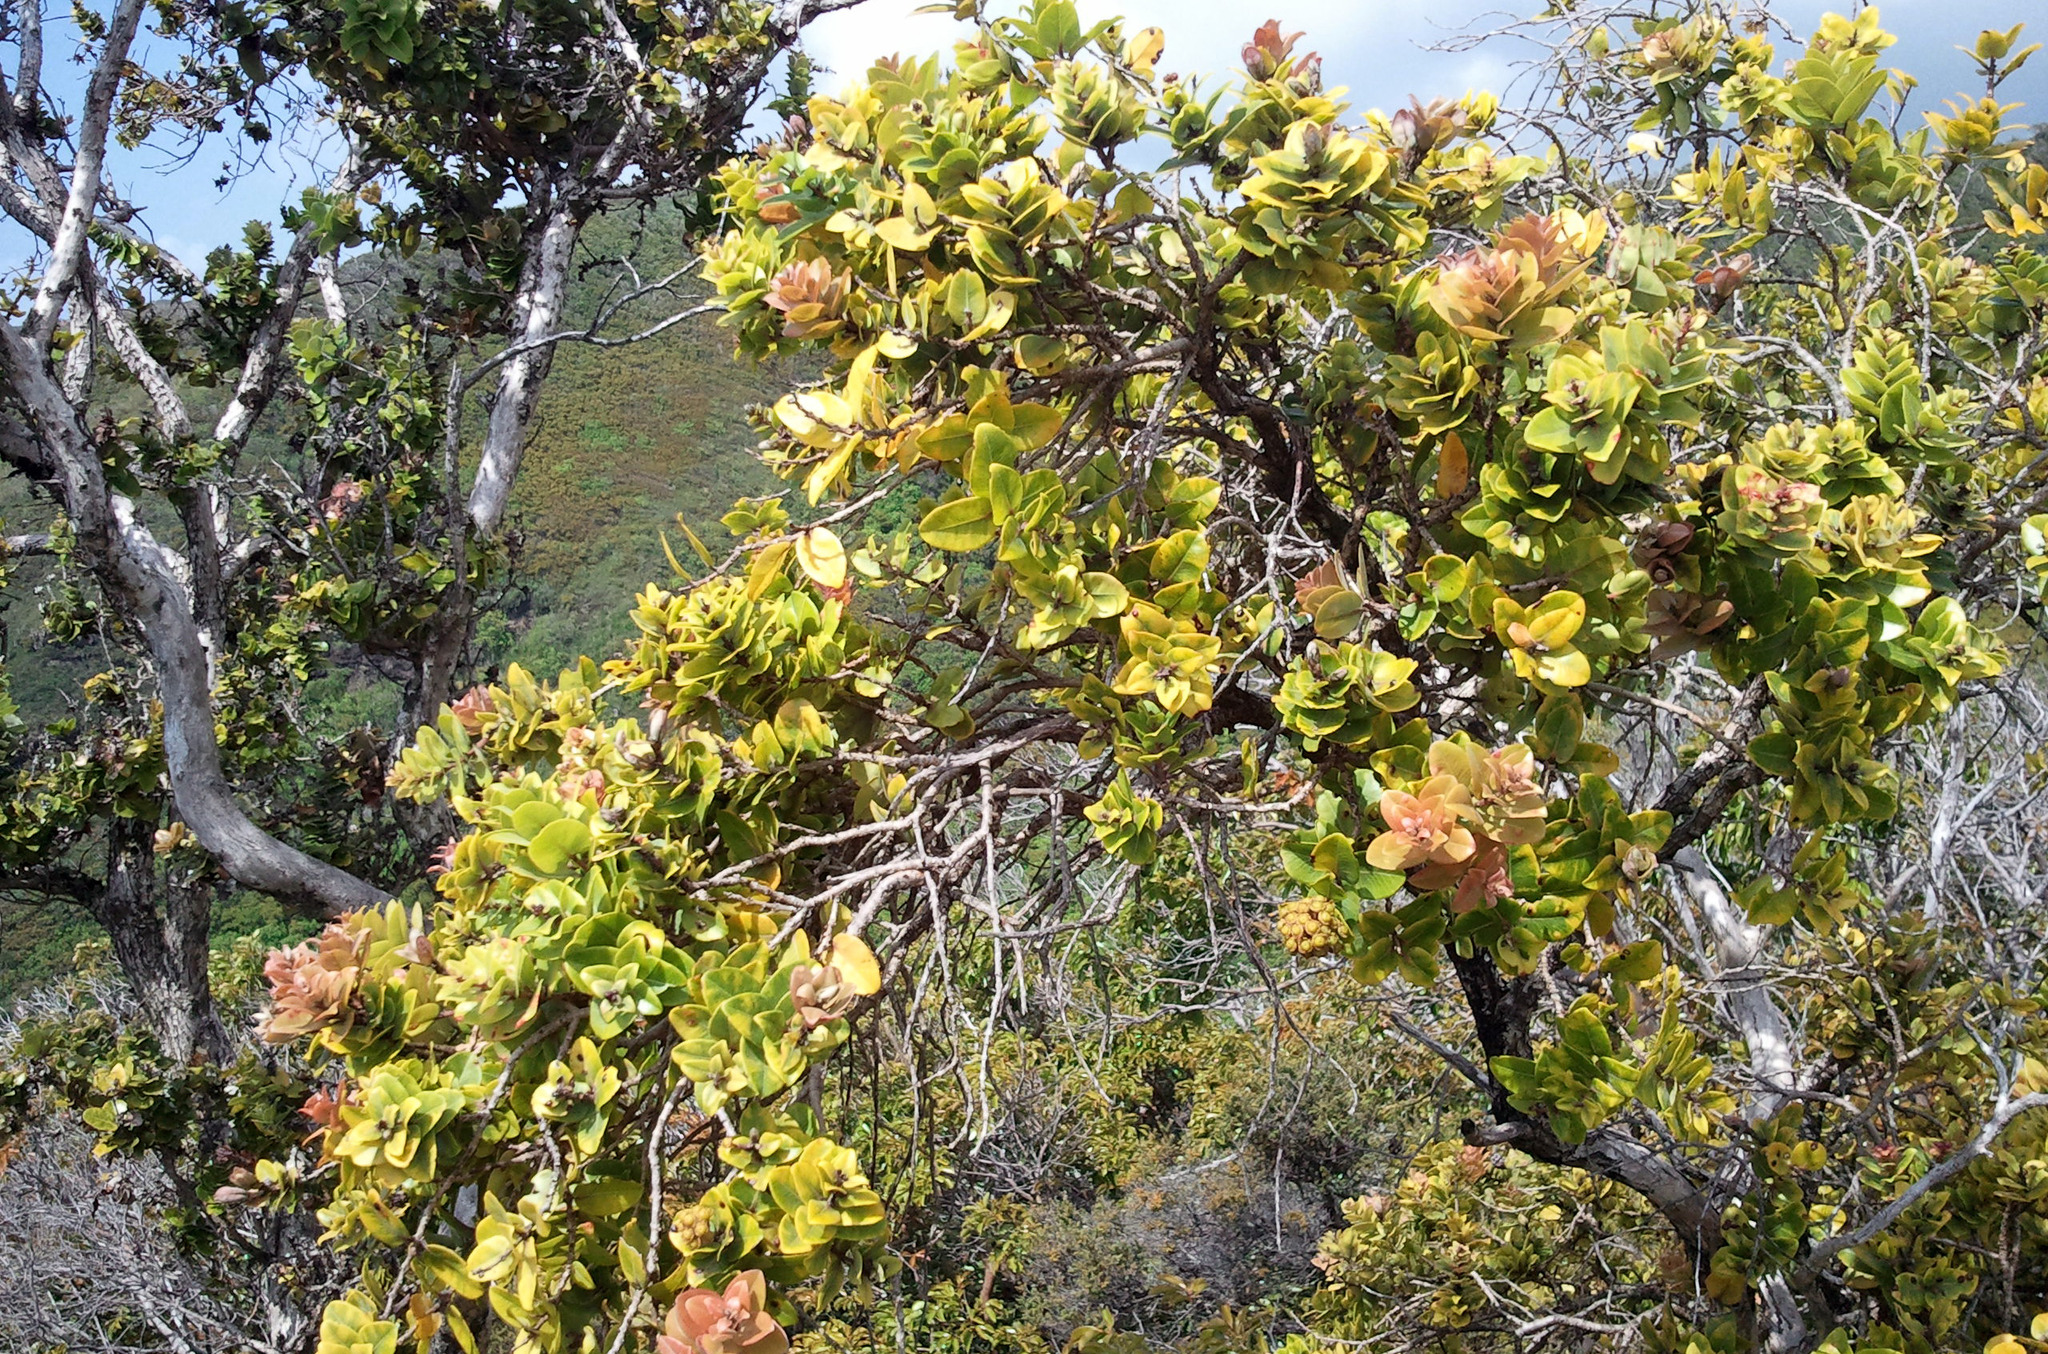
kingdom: Plantae
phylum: Tracheophyta
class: Magnoliopsida
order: Myrtales
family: Myrtaceae
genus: Metrosideros
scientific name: Metrosideros polymorpha
